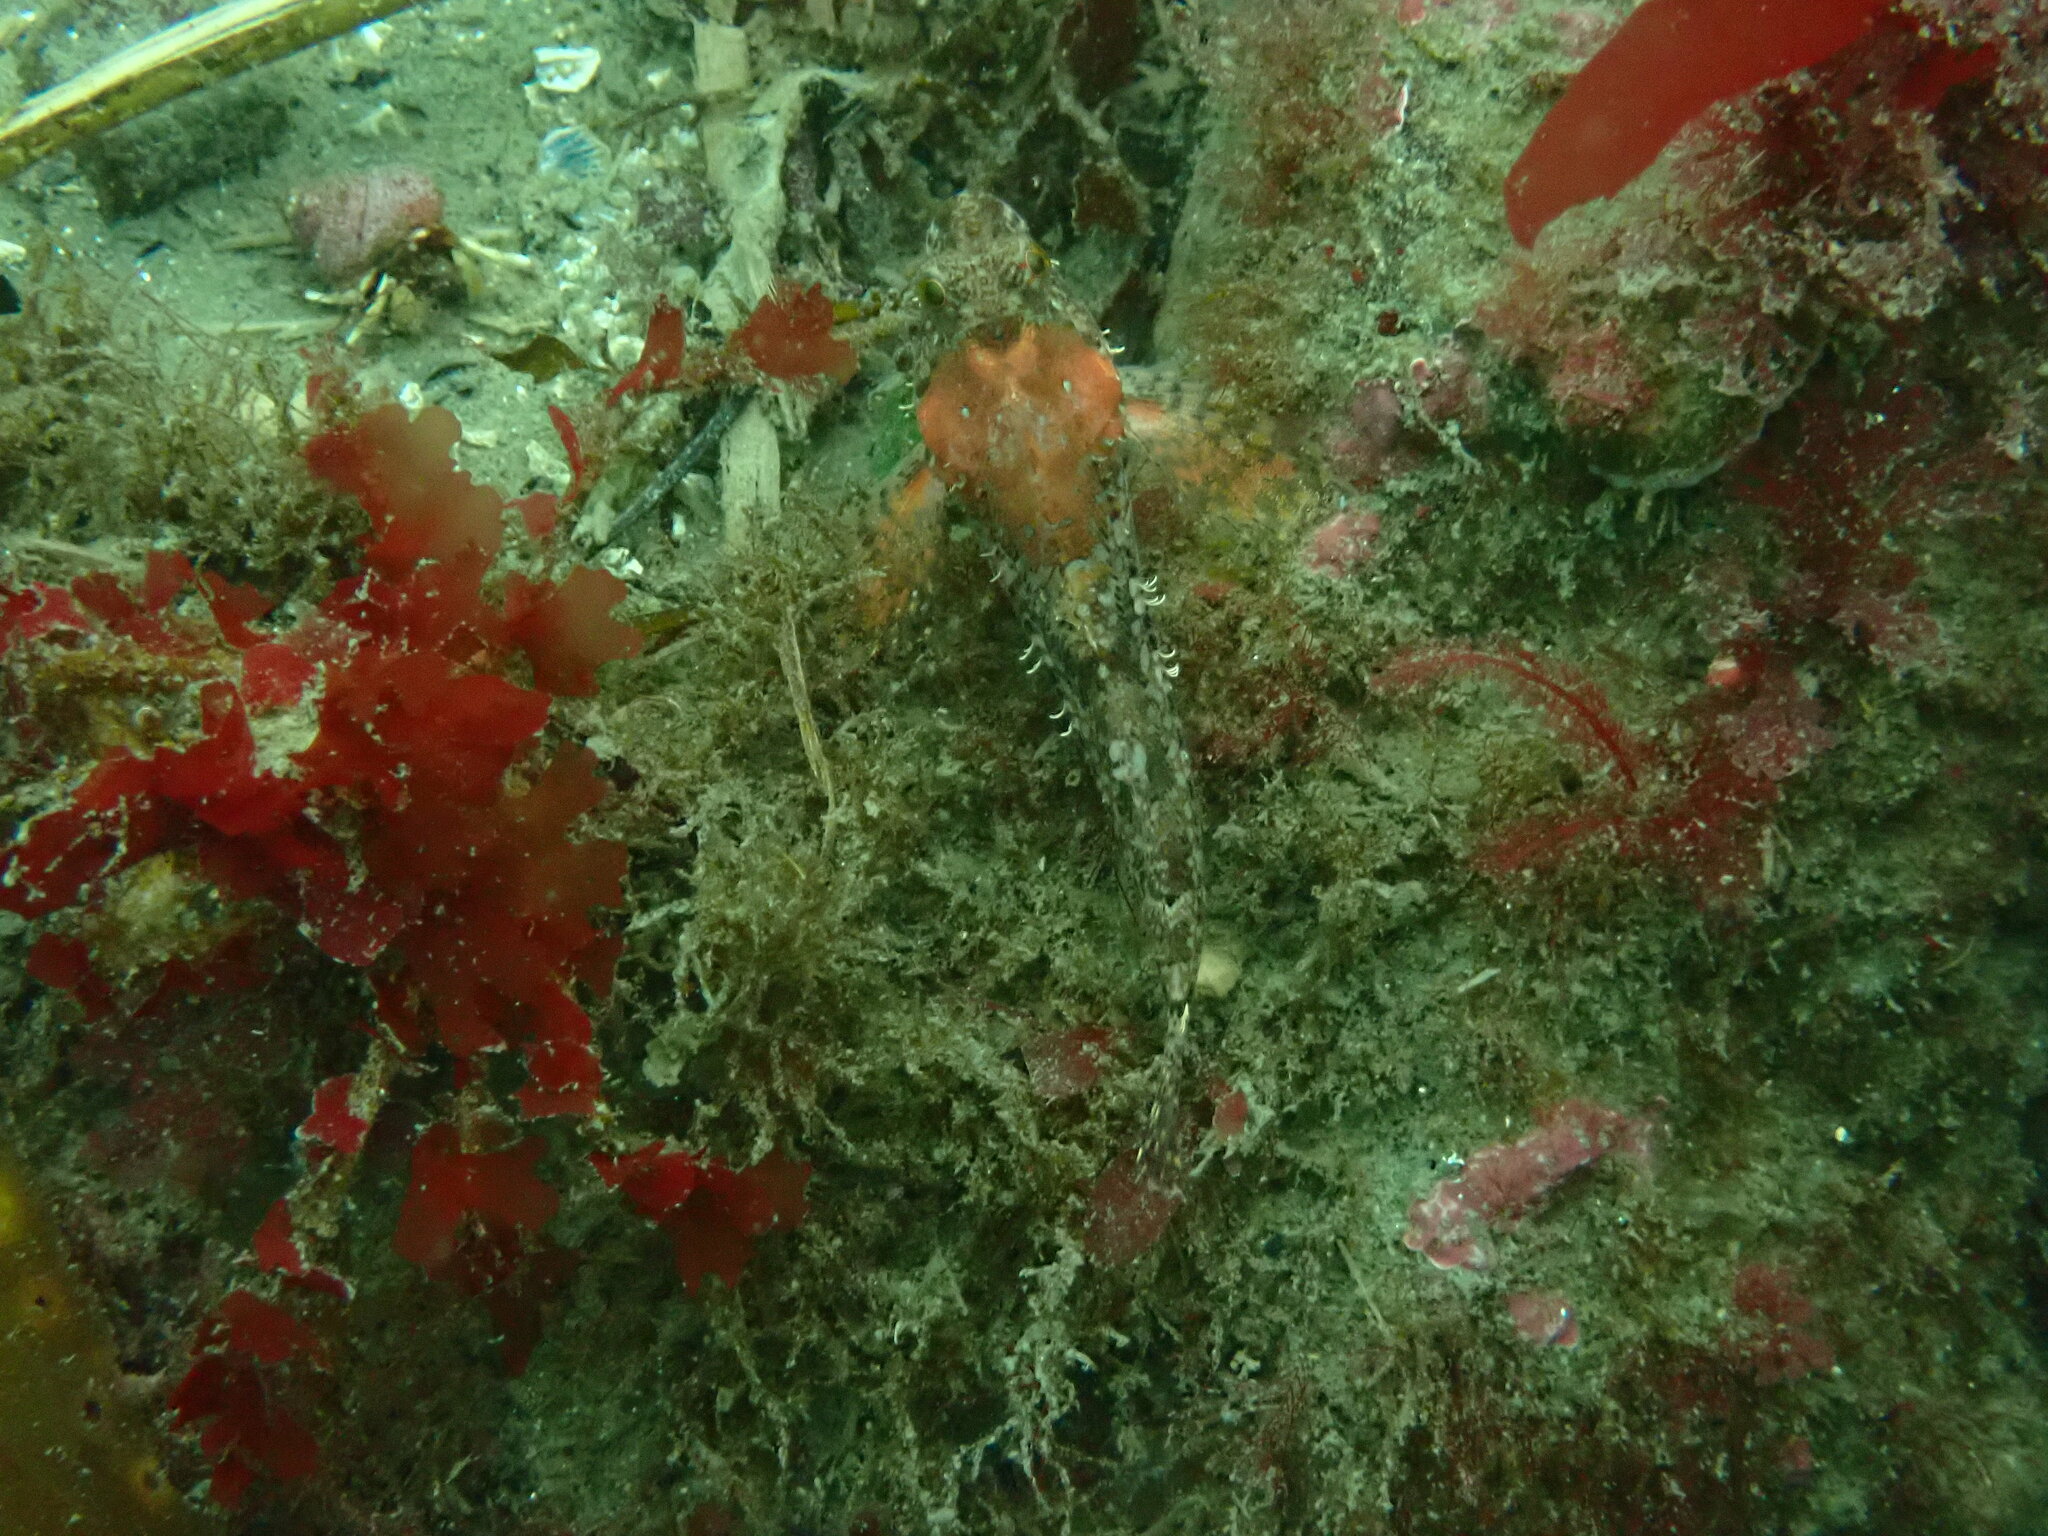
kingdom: Animalia
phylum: Chordata
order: Scorpaeniformes
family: Cottidae
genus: Artedius
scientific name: Artedius harringtoni
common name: Scalyhead sculpin
